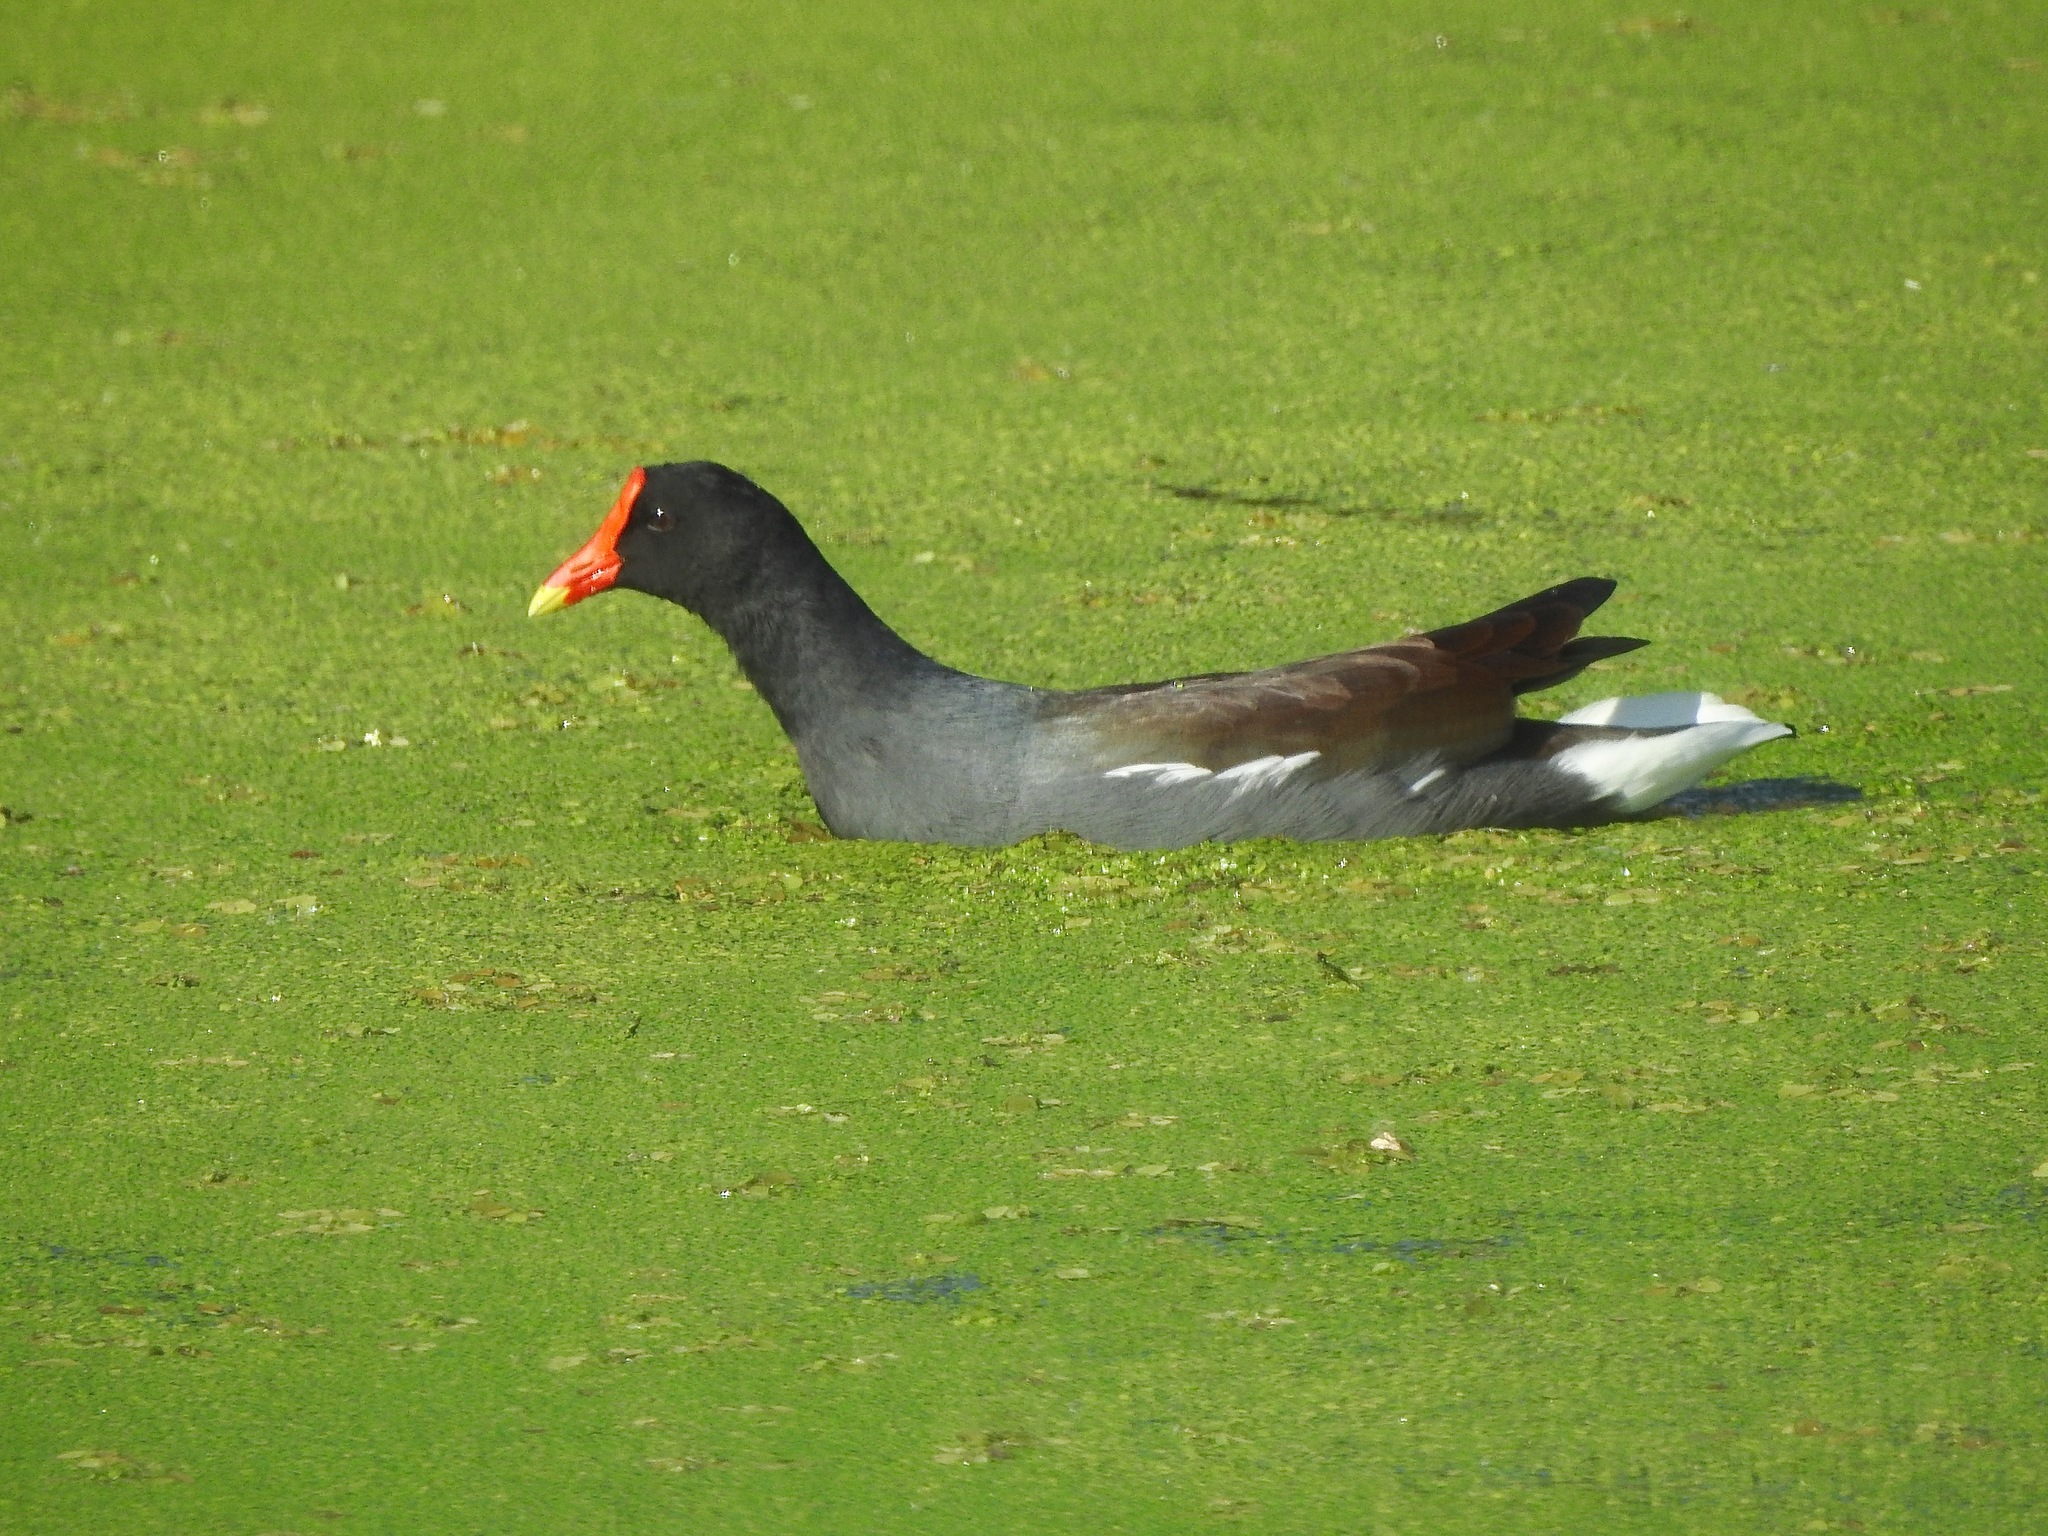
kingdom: Animalia
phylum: Chordata
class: Aves
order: Gruiformes
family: Rallidae
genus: Gallinula
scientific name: Gallinula chloropus
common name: Common moorhen
